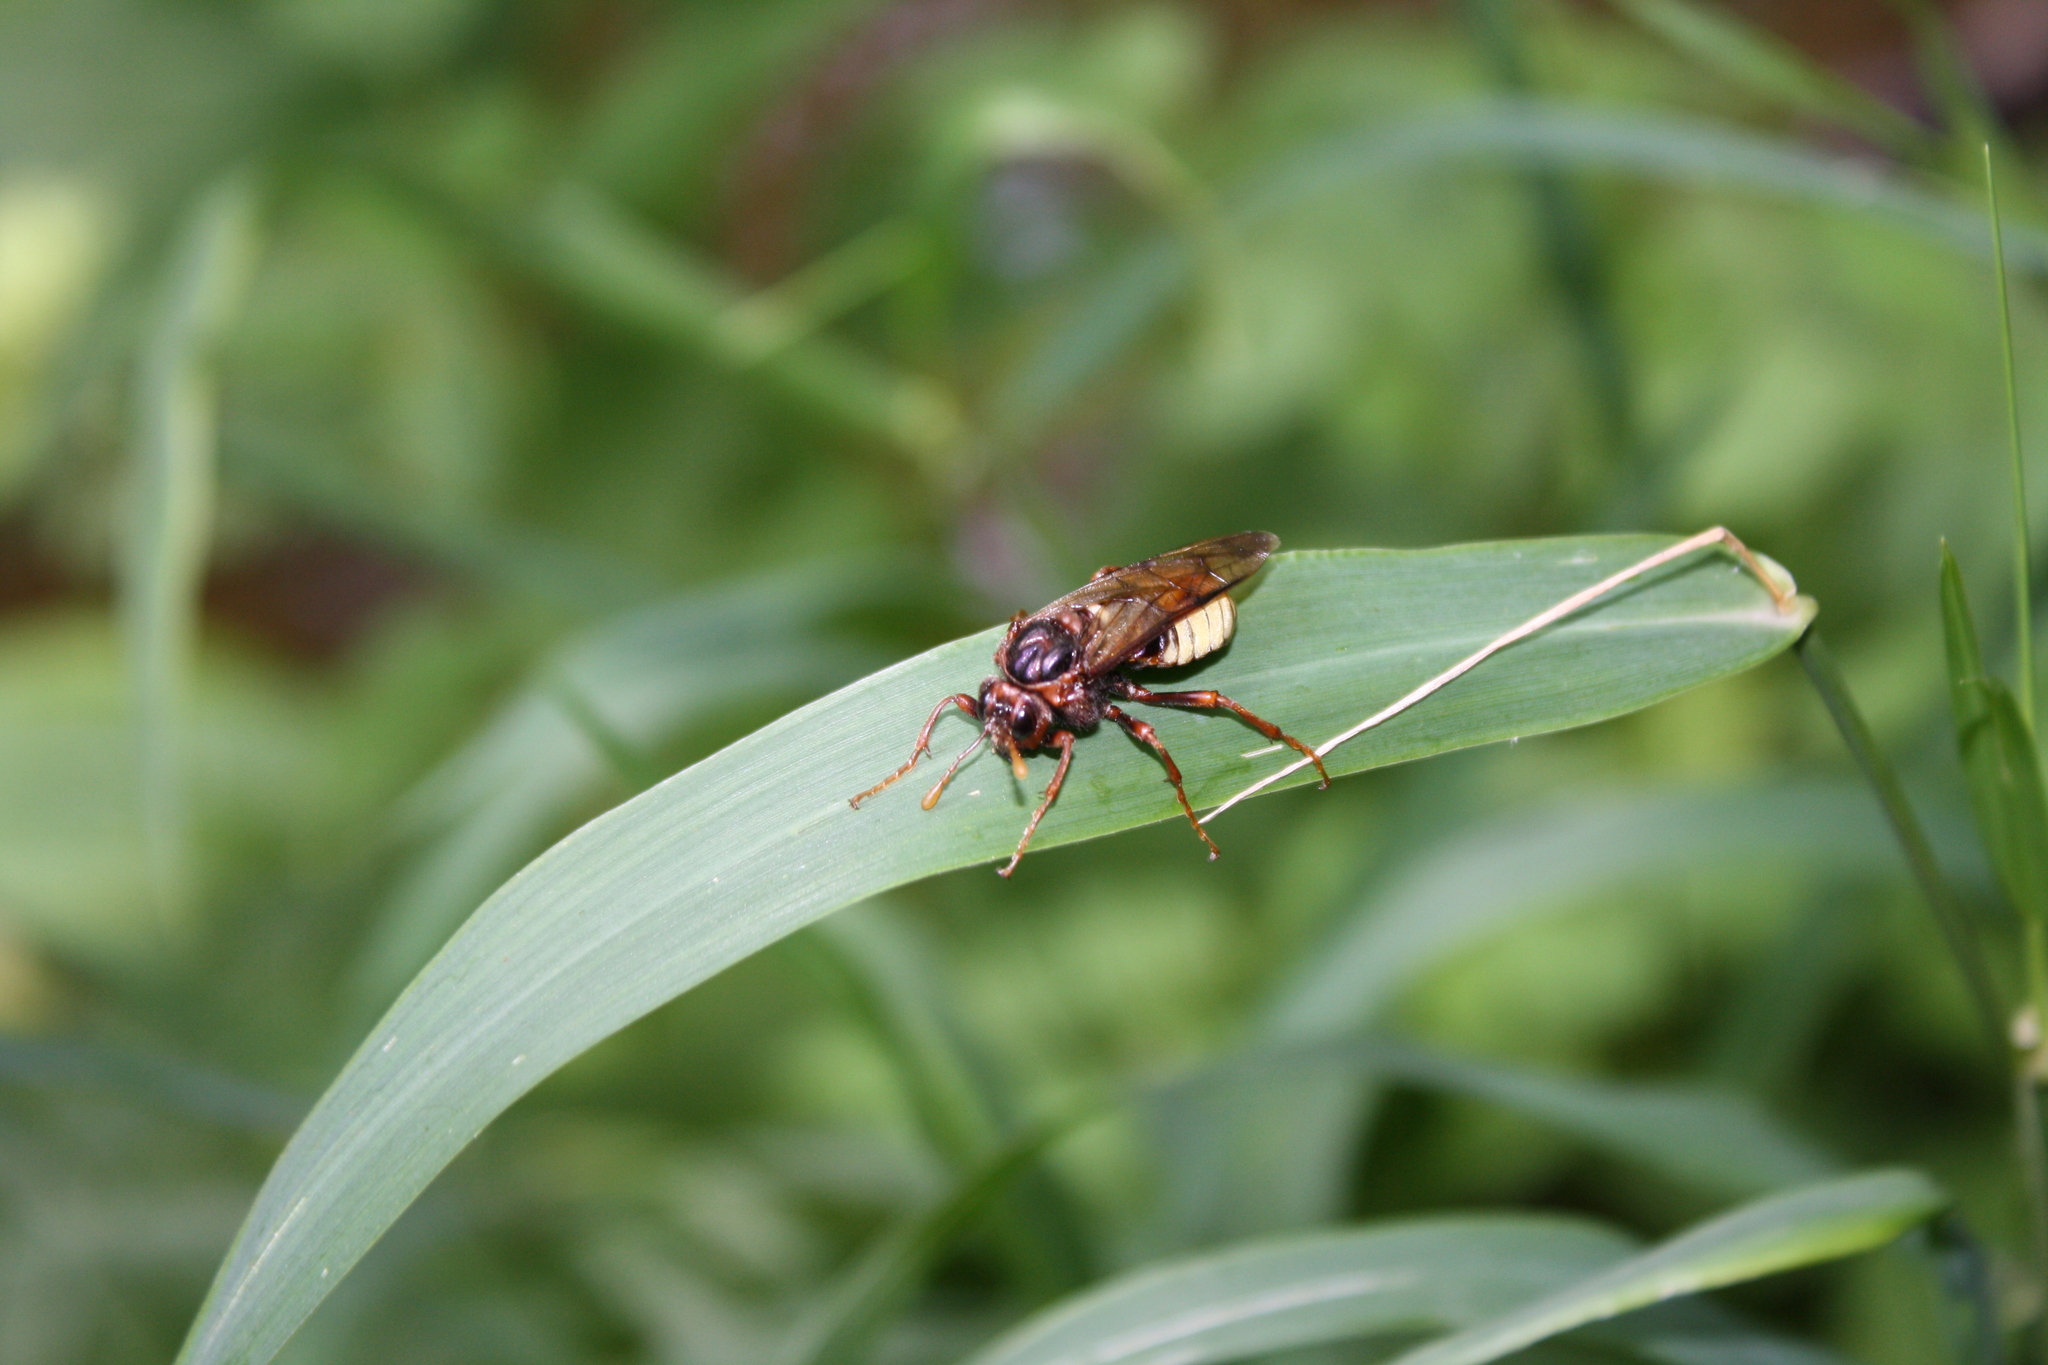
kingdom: Animalia
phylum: Arthropoda
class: Insecta
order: Hymenoptera
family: Cimbicidae
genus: Cimbex
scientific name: Cimbex connatus
